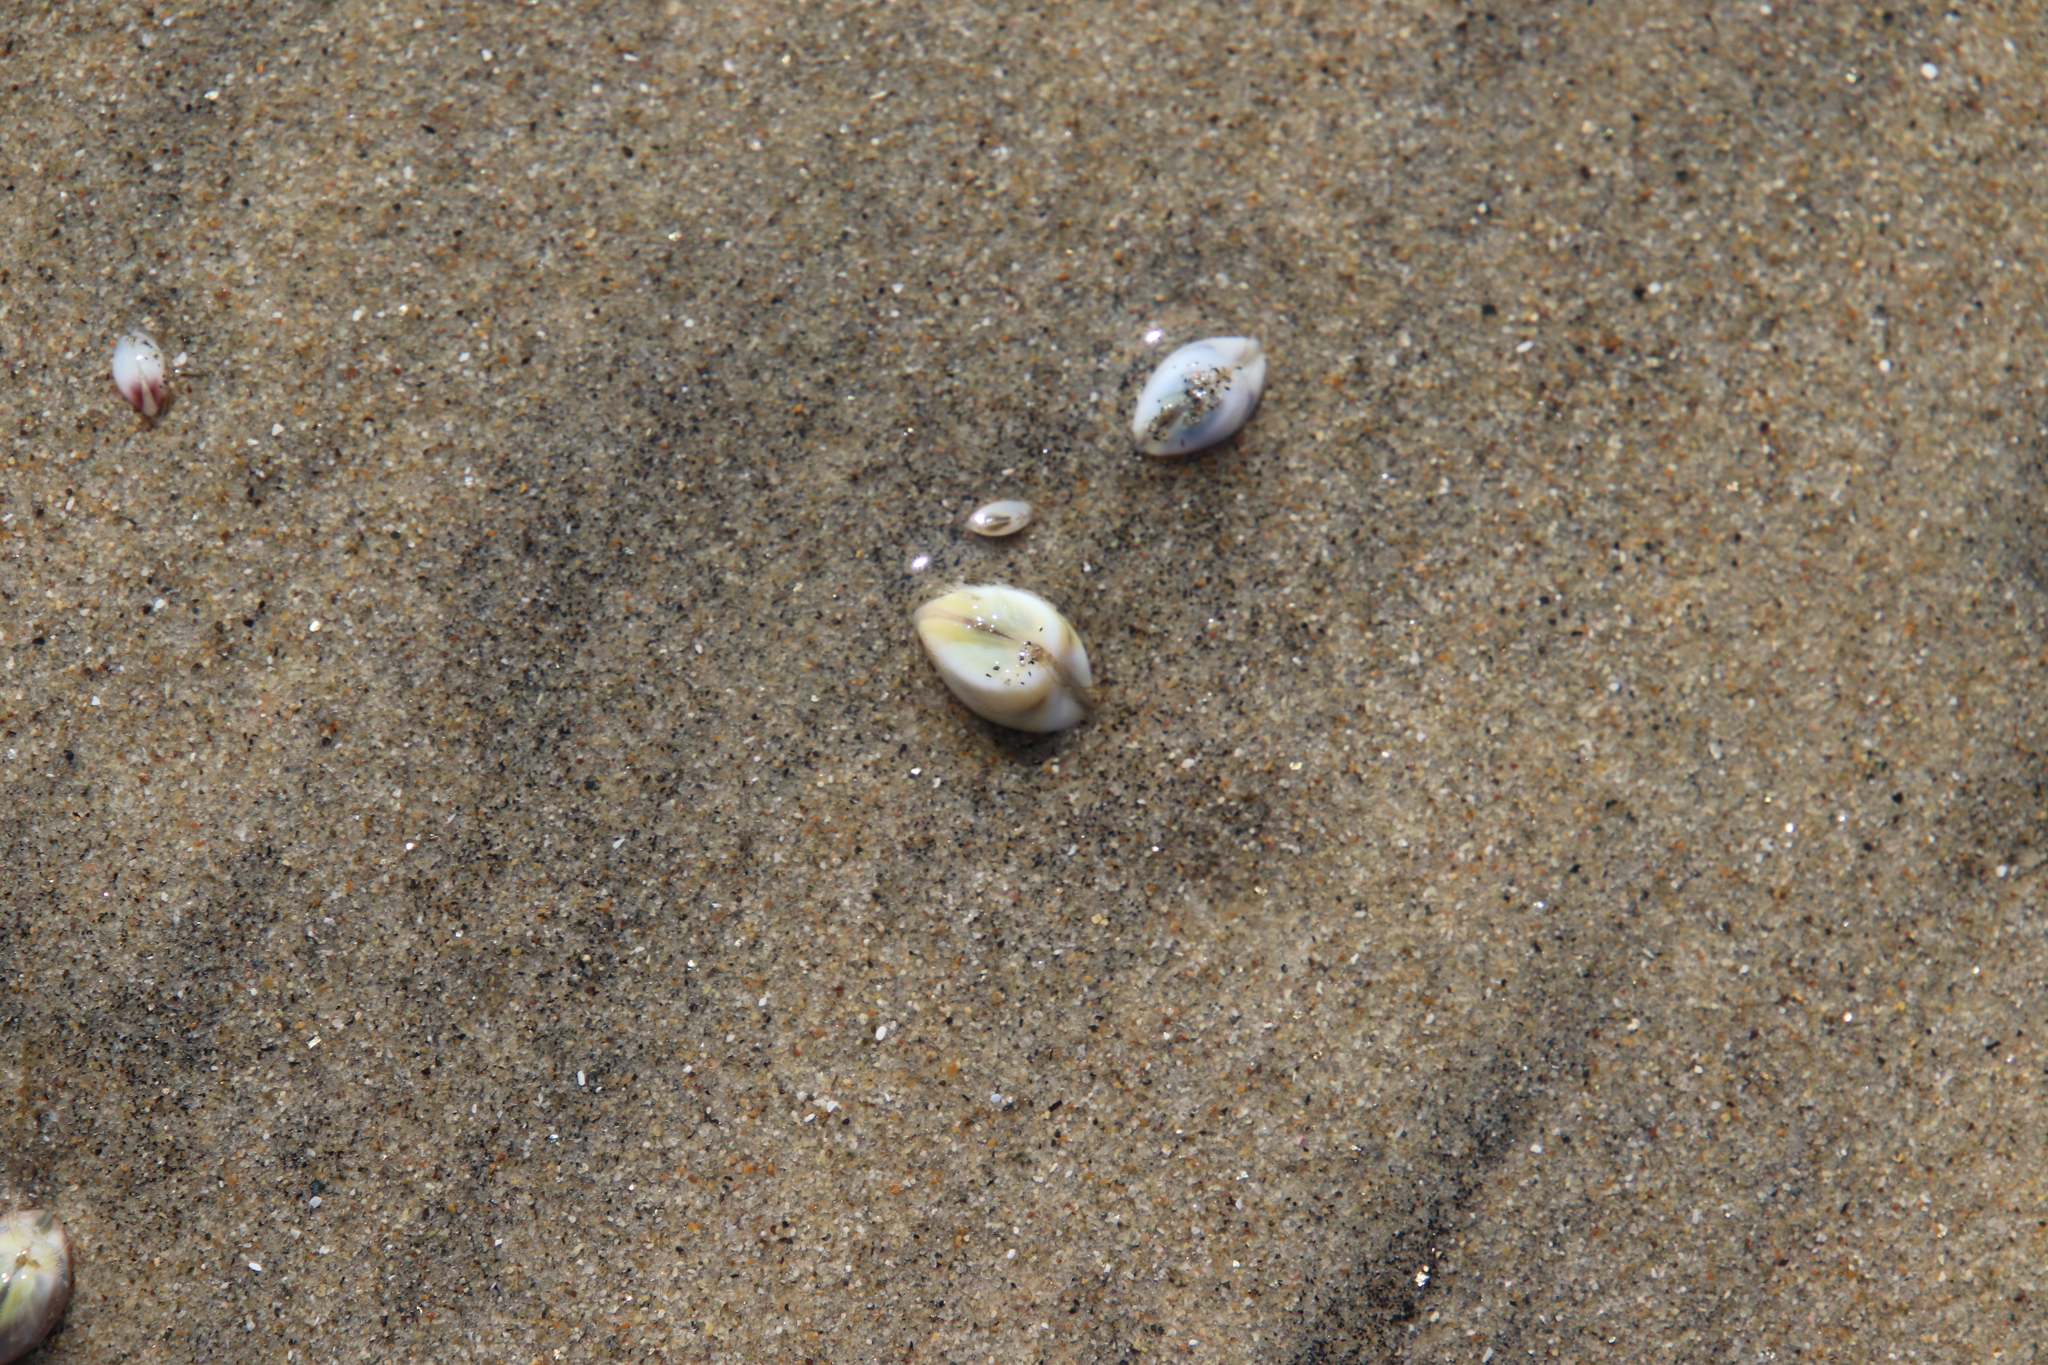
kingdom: Animalia
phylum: Mollusca
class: Bivalvia
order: Cardiida
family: Donacidae
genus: Donax
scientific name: Donax gouldii
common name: Gould beanclam
